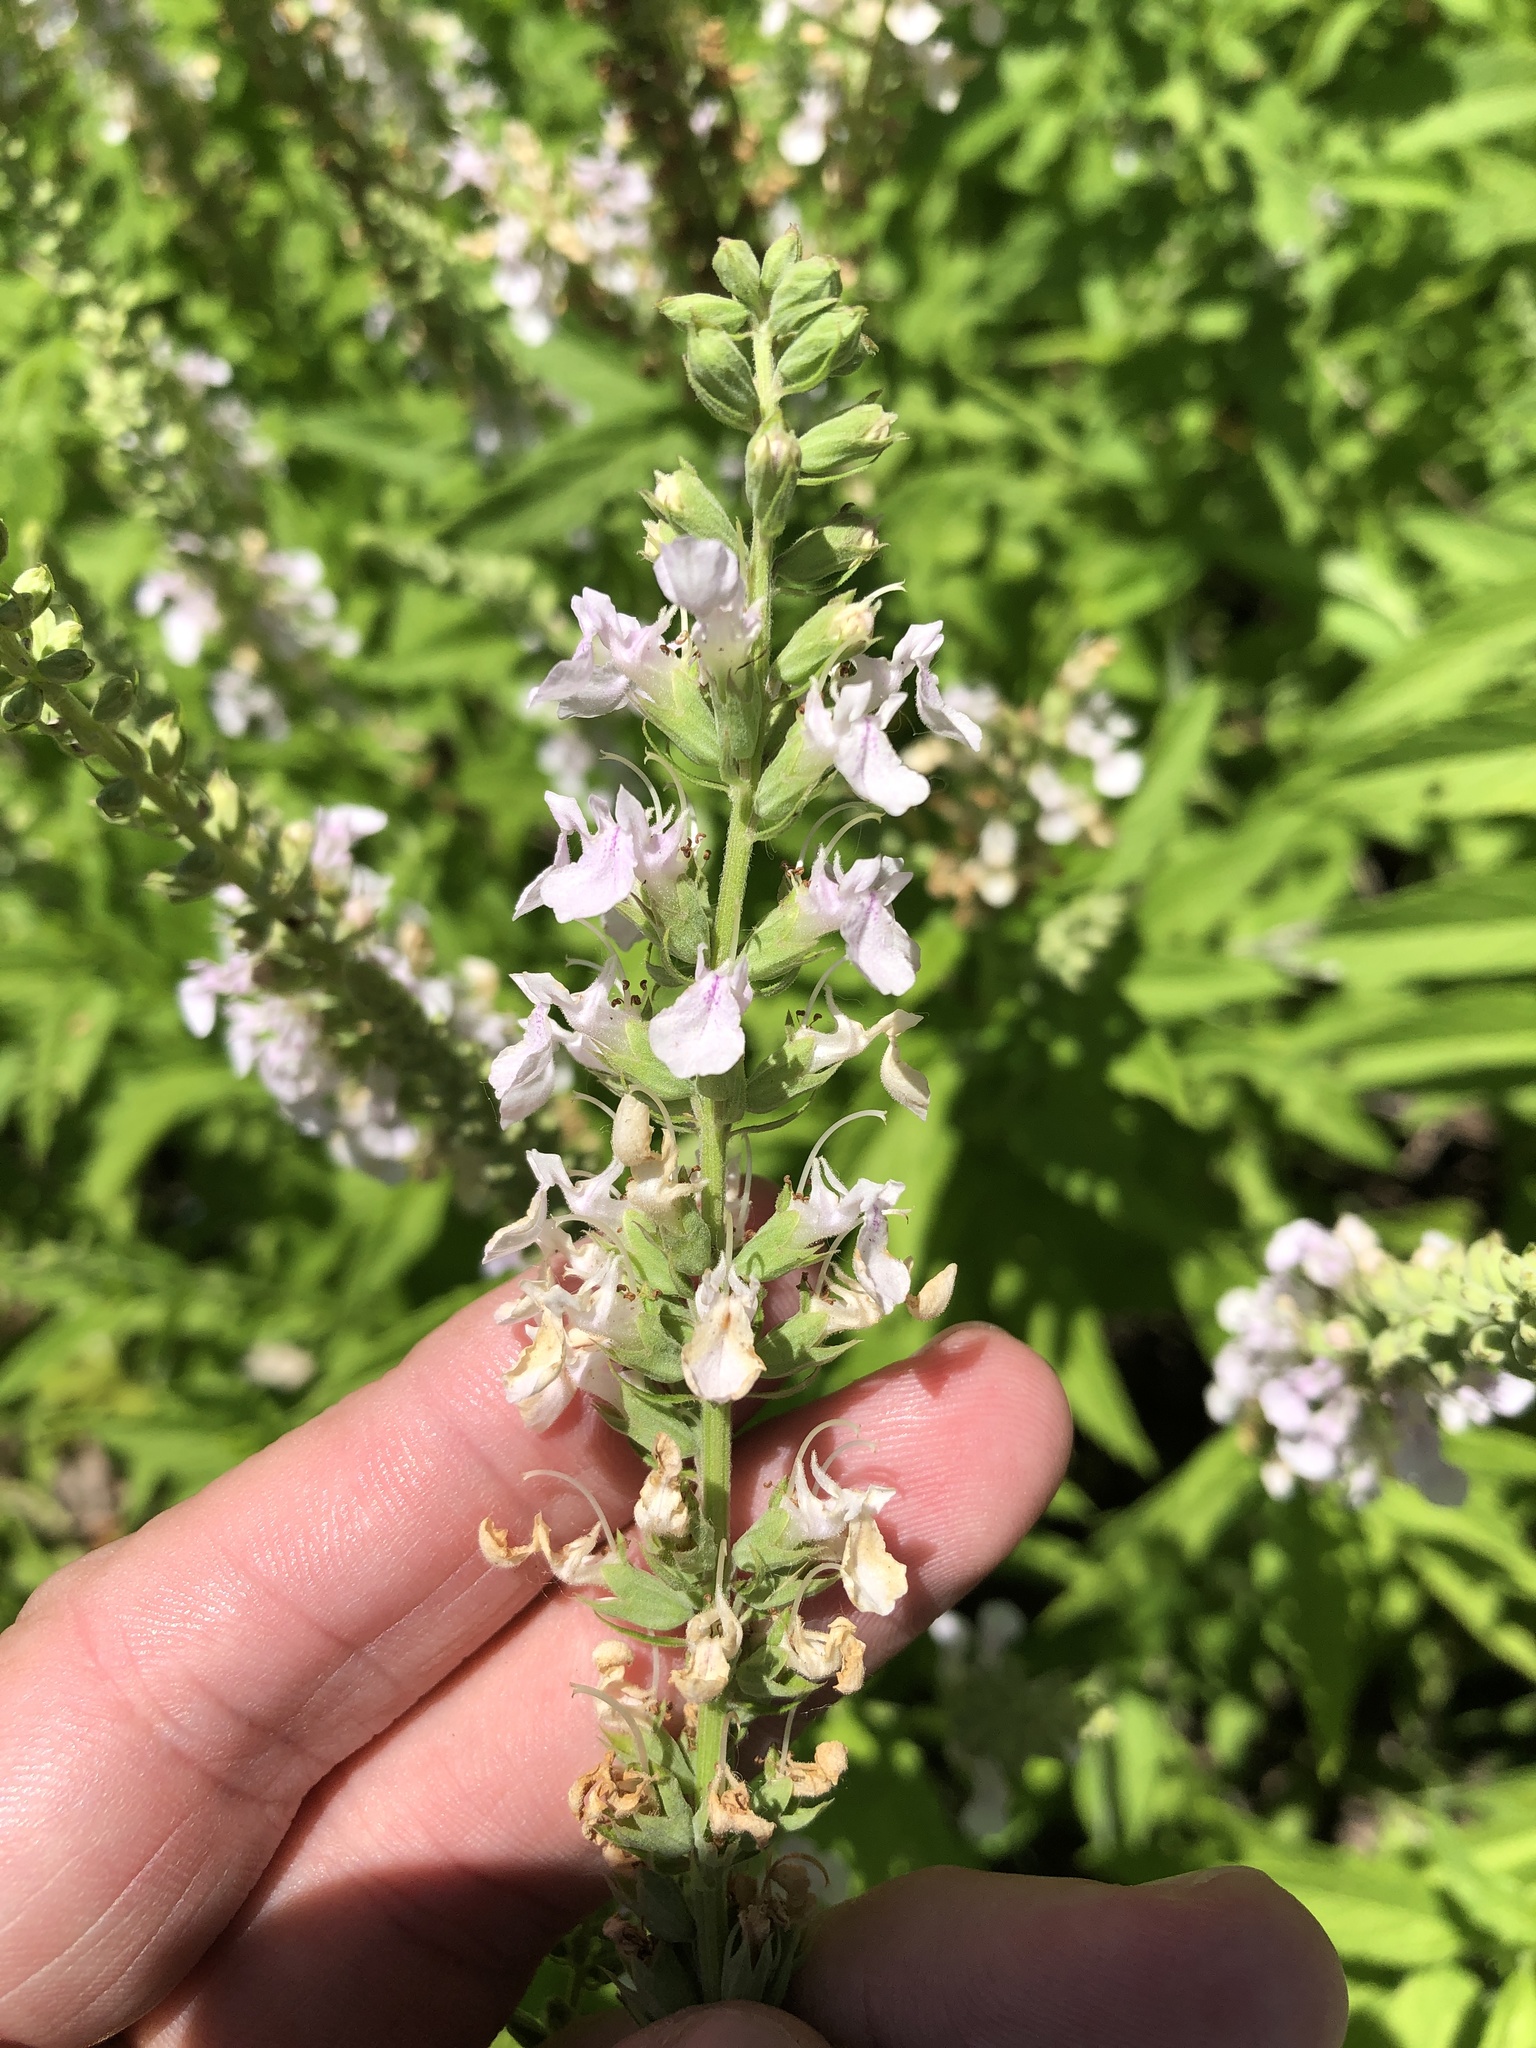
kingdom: Plantae
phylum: Tracheophyta
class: Magnoliopsida
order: Lamiales
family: Lamiaceae
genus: Teucrium
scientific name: Teucrium canadense
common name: American germander
